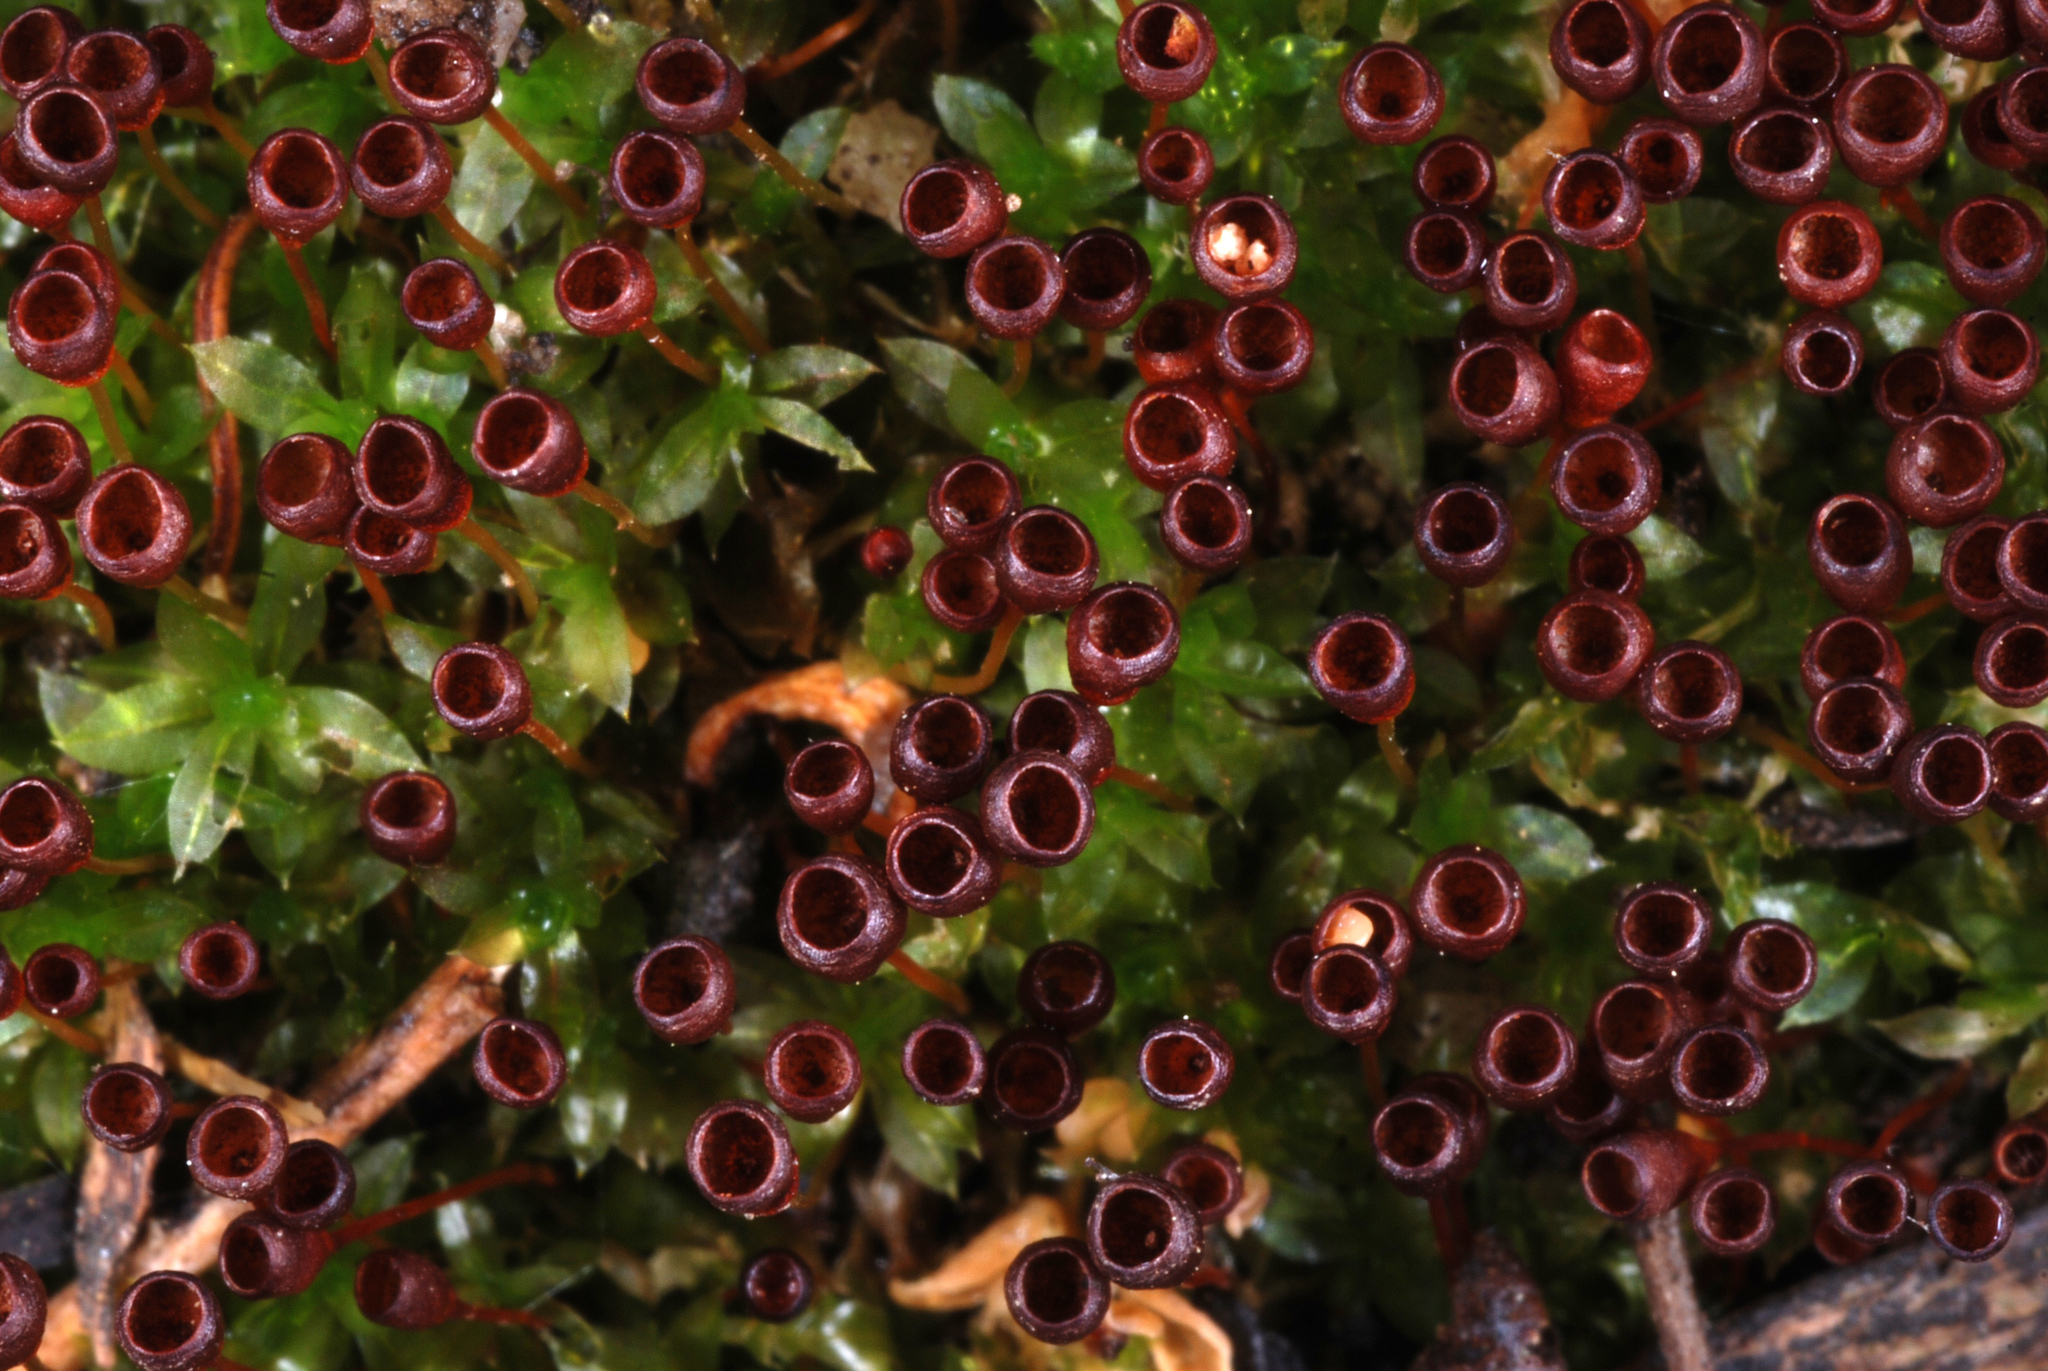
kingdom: Plantae
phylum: Bryophyta
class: Bryopsida
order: Funariales
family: Funariaceae
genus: Physcomitrium
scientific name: Physcomitrium pyriforme
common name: Common bladder-moss
